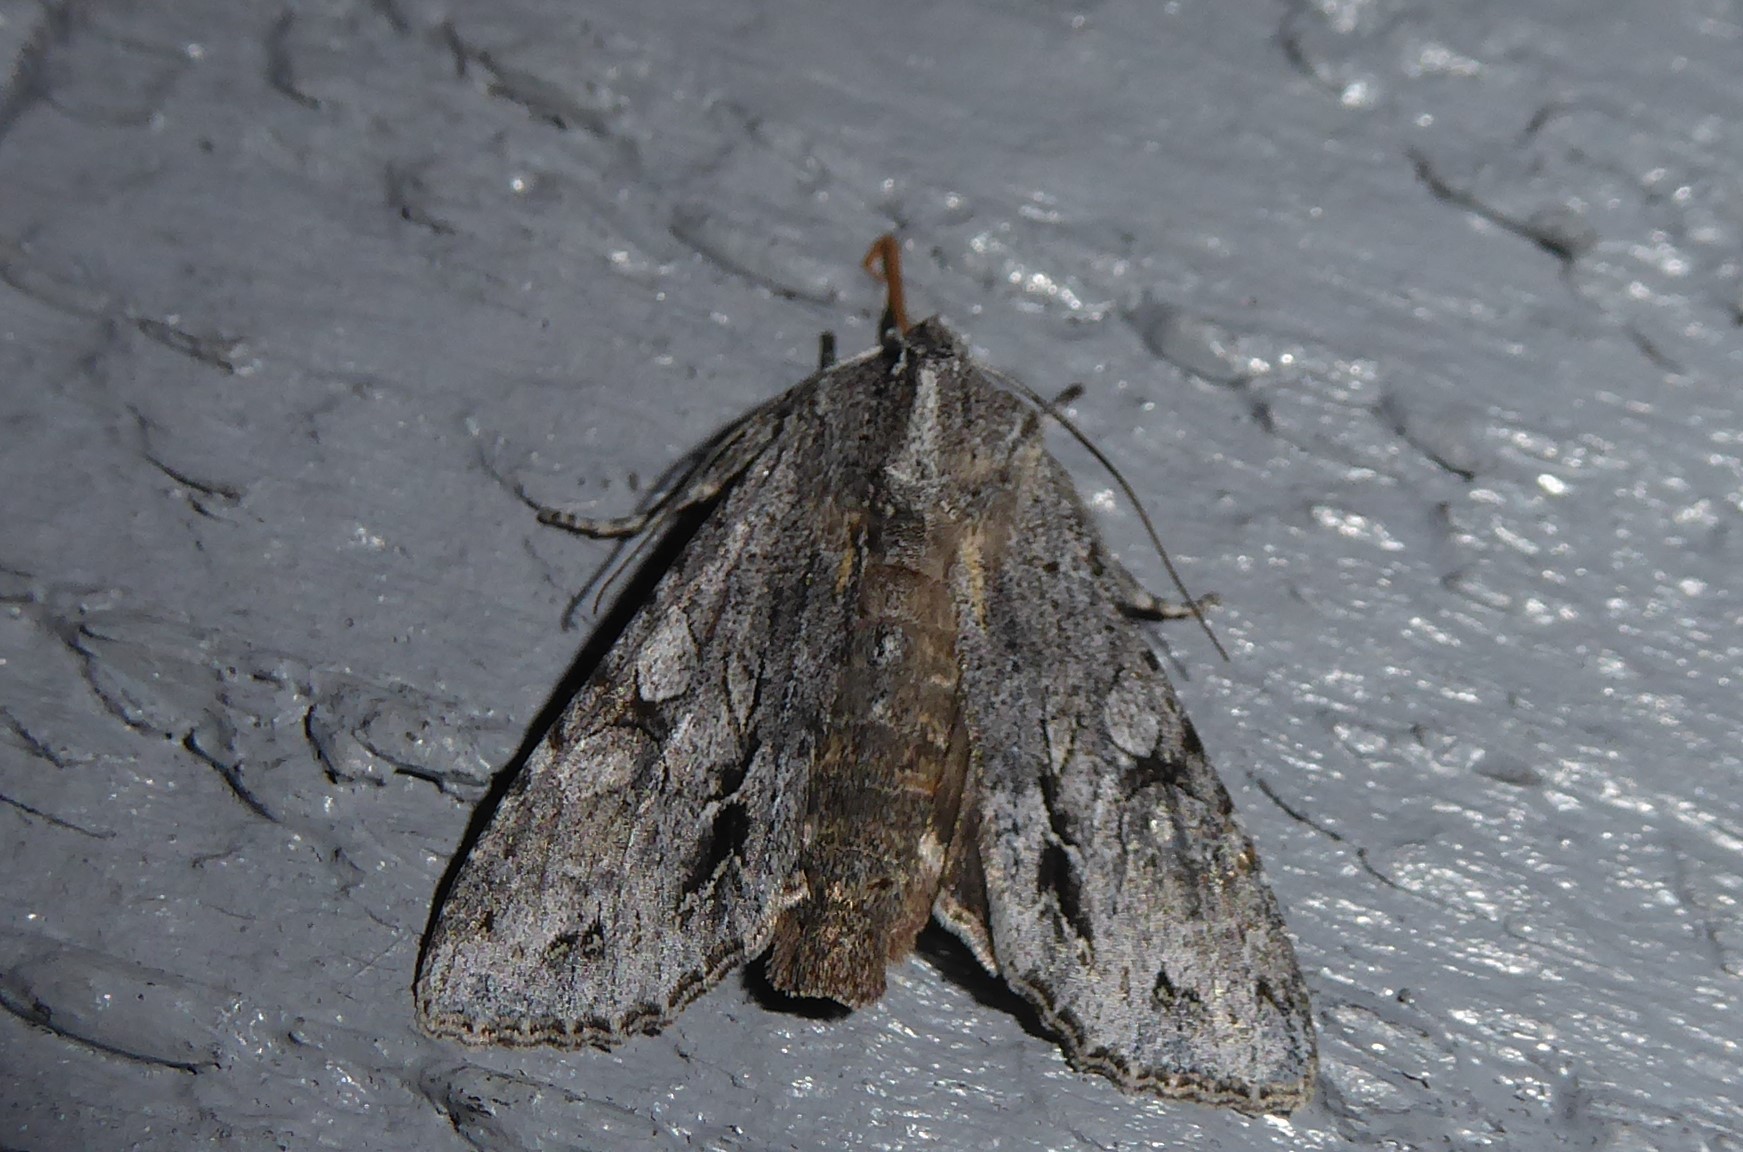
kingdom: Animalia
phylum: Arthropoda
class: Insecta
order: Lepidoptera
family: Noctuidae
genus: Ichneutica
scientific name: Ichneutica
